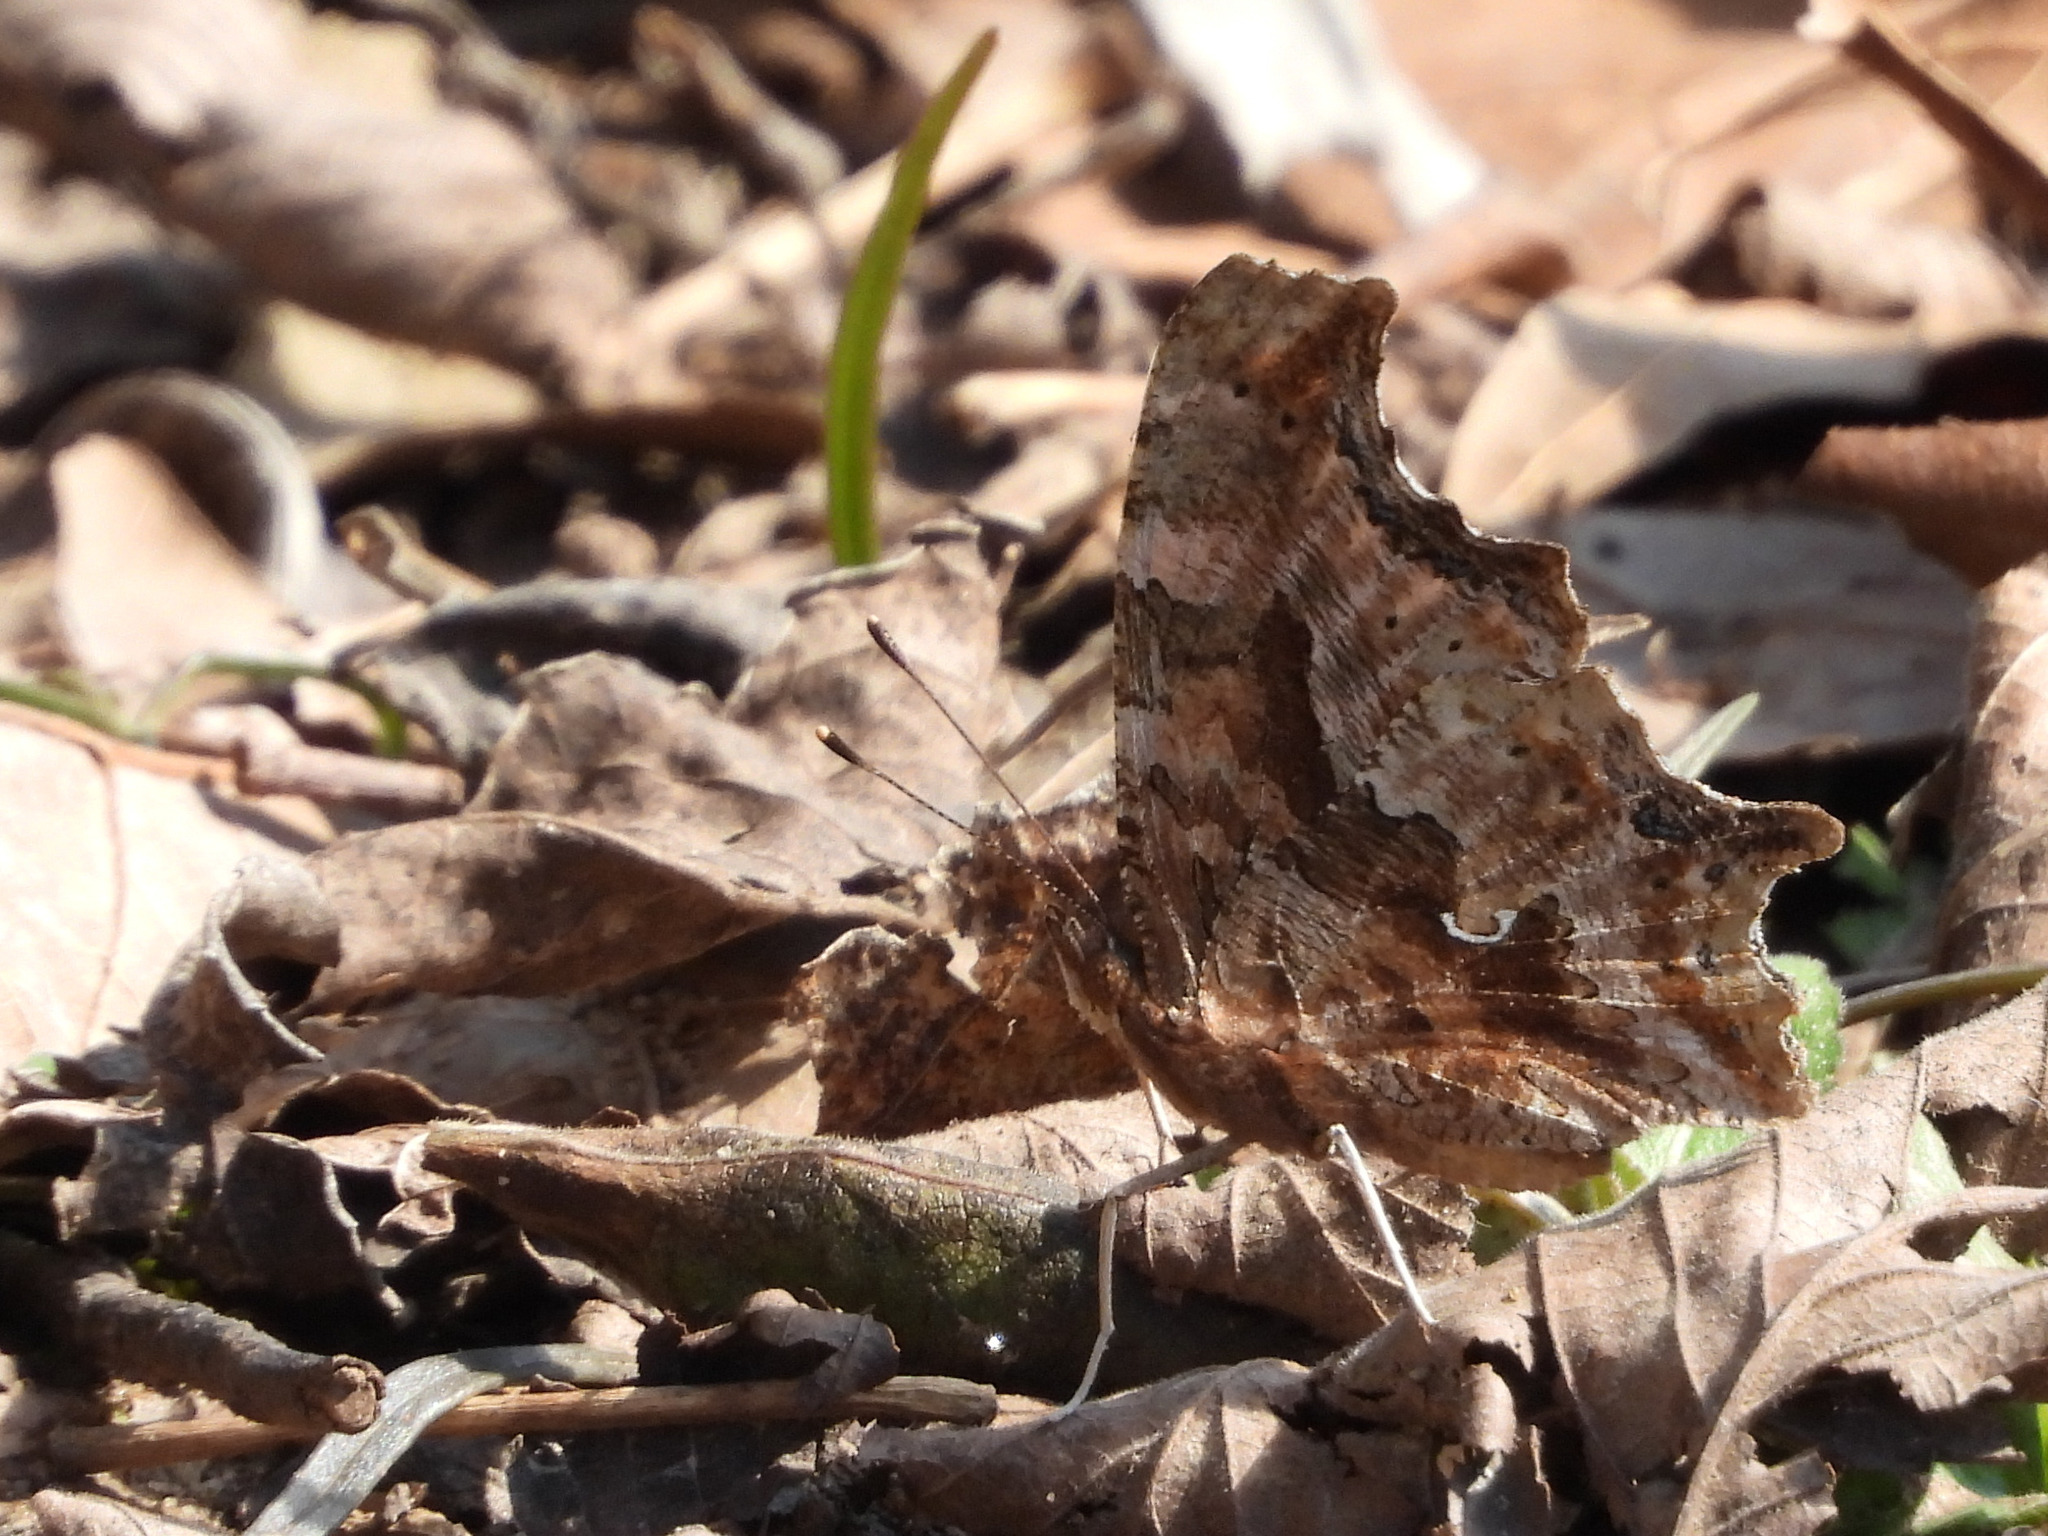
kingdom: Animalia
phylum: Arthropoda
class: Insecta
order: Lepidoptera
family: Nymphalidae
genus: Polygonia
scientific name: Polygonia comma
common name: Eastern comma
